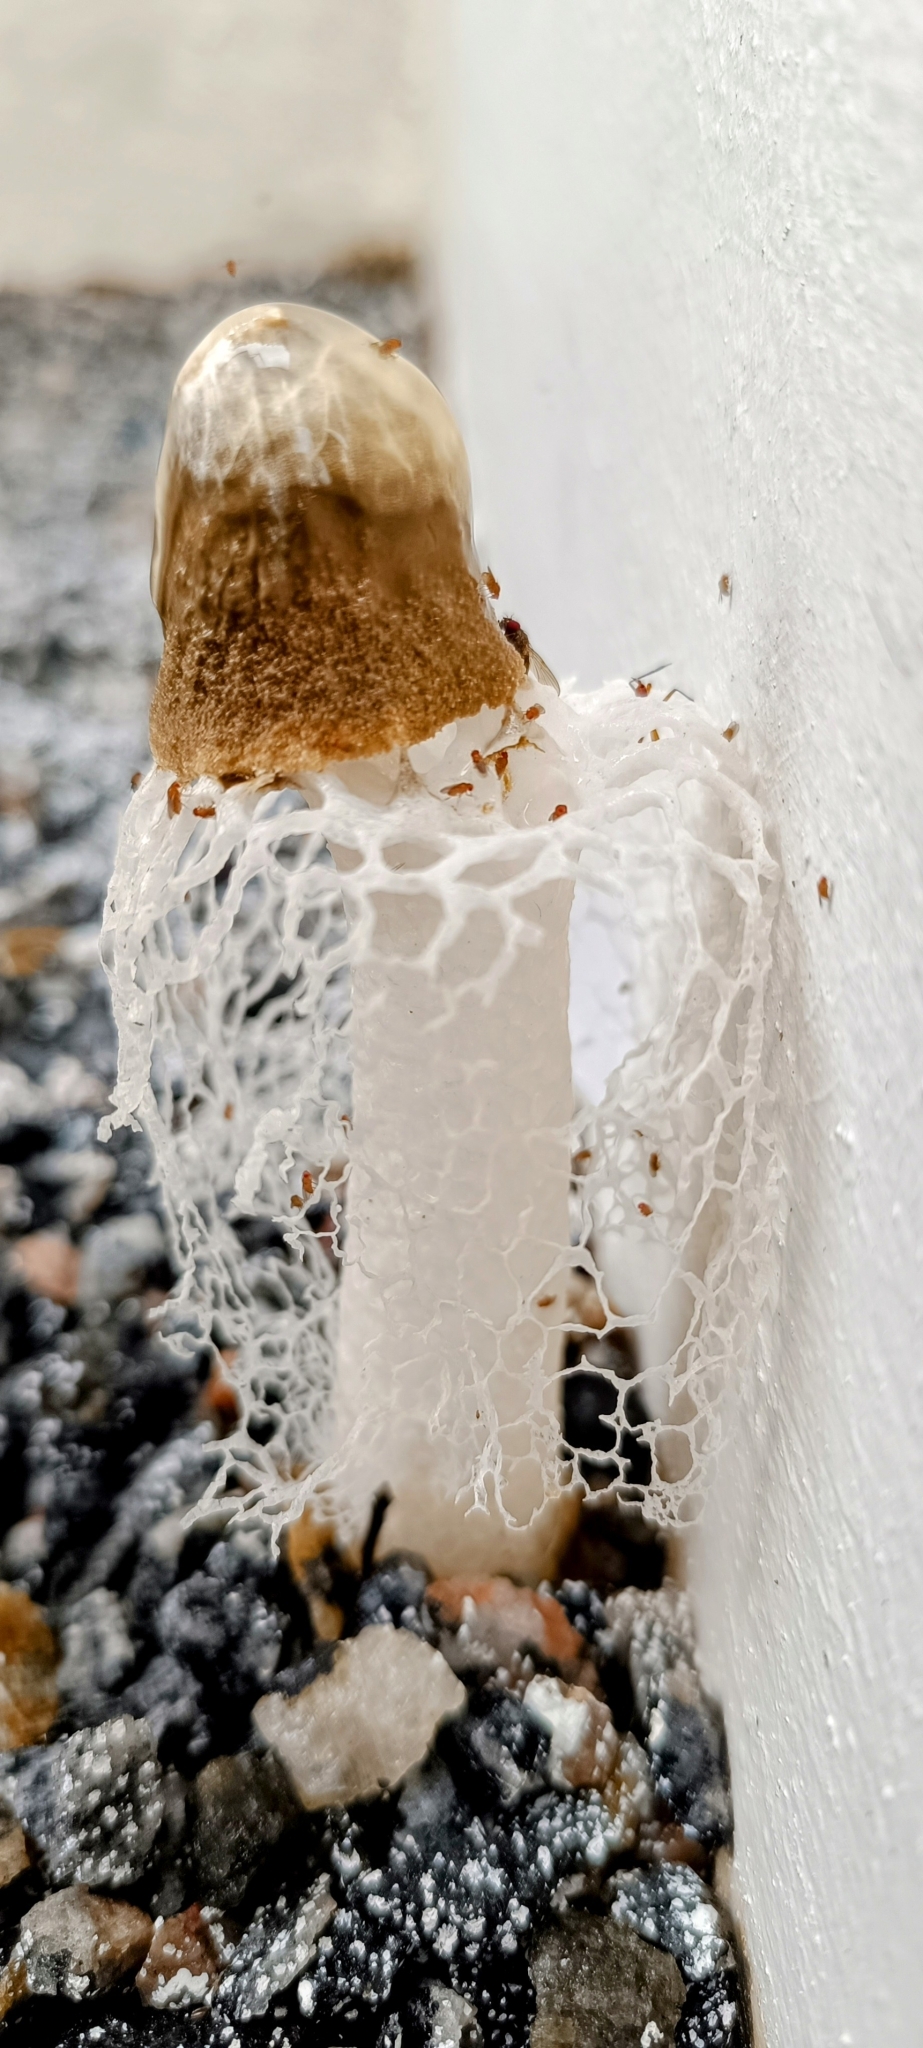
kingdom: Fungi
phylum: Basidiomycota
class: Agaricomycetes
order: Phallales
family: Phallaceae
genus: Phallus
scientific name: Phallus merulinus
